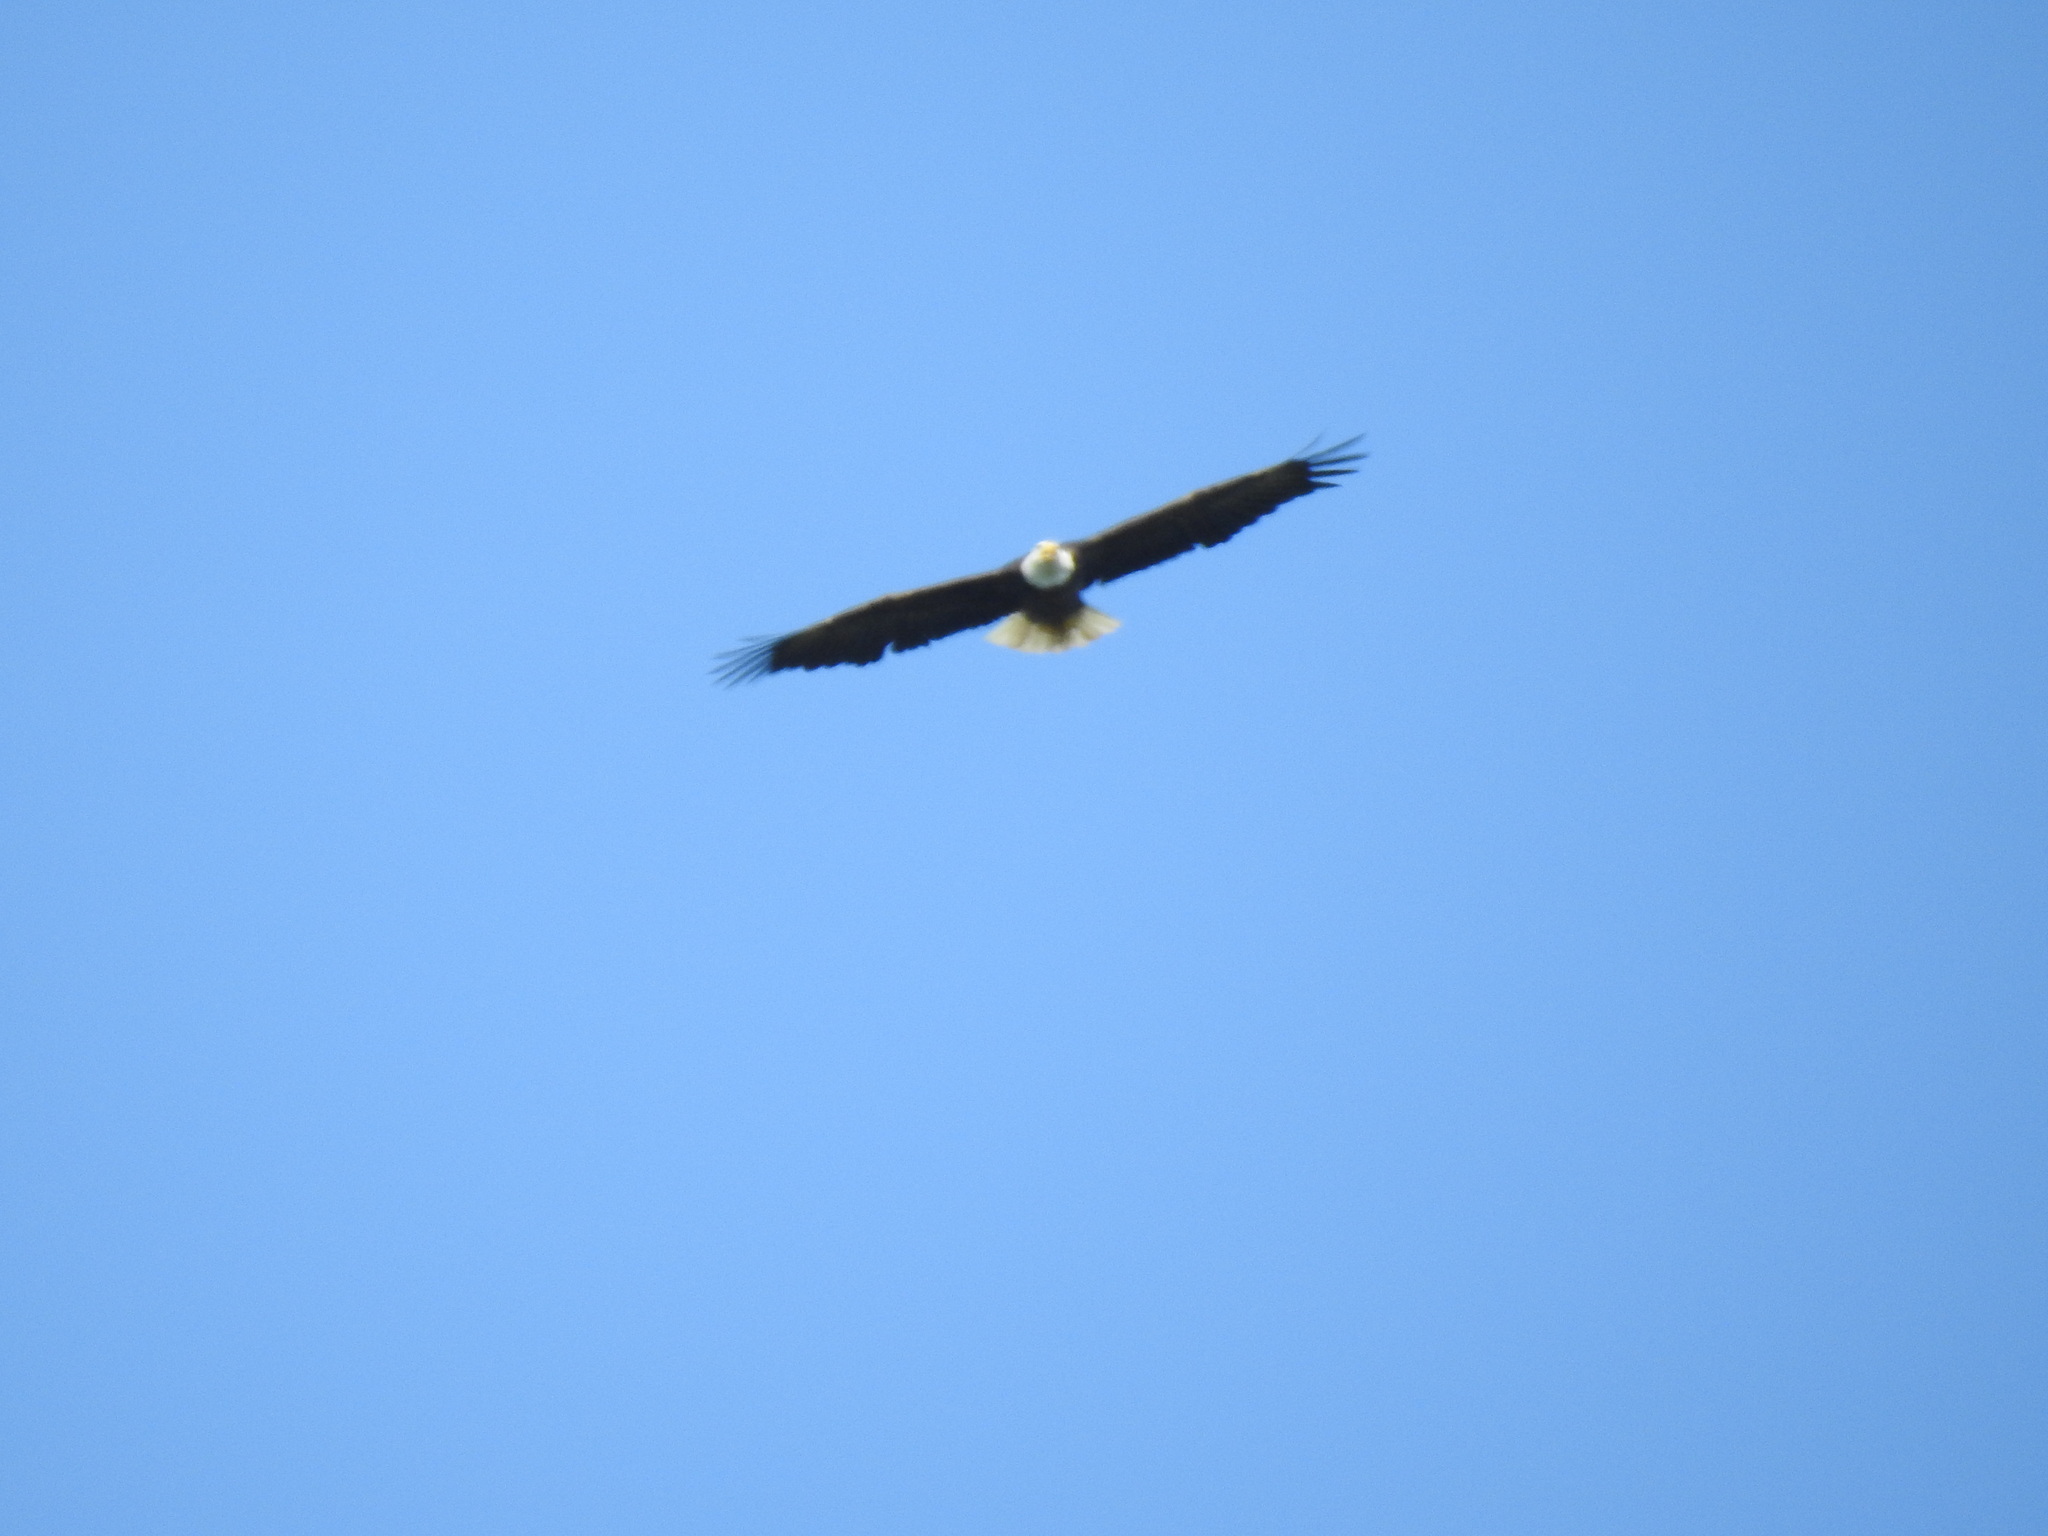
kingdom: Animalia
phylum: Chordata
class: Aves
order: Accipitriformes
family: Accipitridae
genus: Haliaeetus
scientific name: Haliaeetus leucocephalus
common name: Bald eagle
